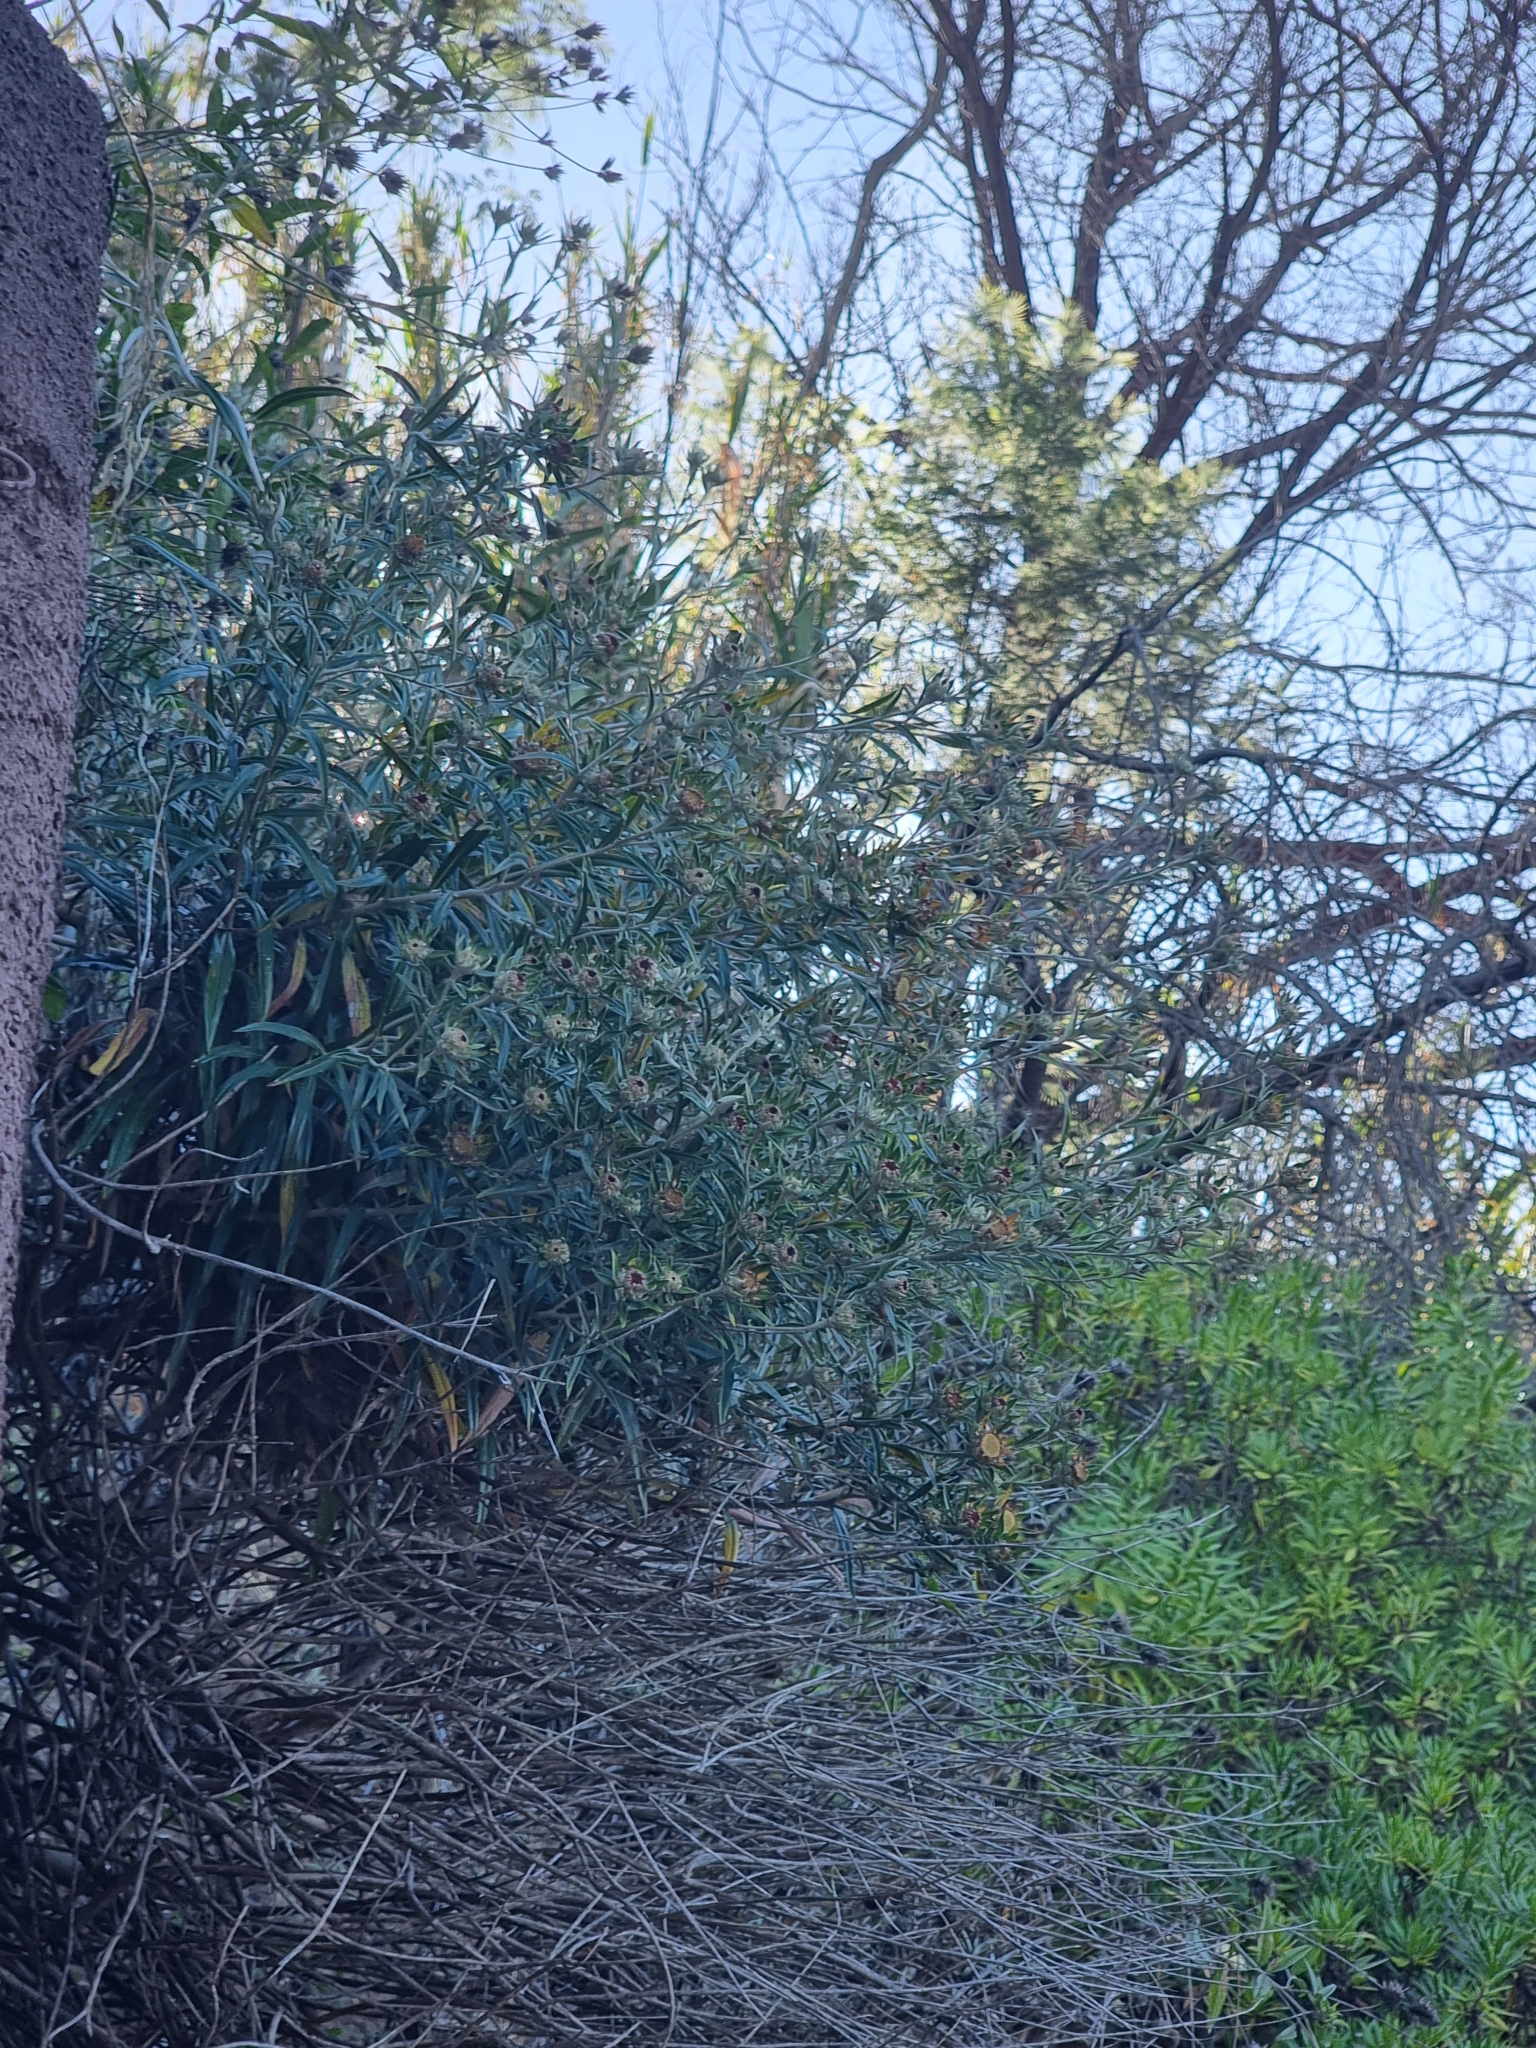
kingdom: Plantae
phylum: Tracheophyta
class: Magnoliopsida
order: Asterales
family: Asteraceae
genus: Carlina
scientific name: Carlina salicifolia
